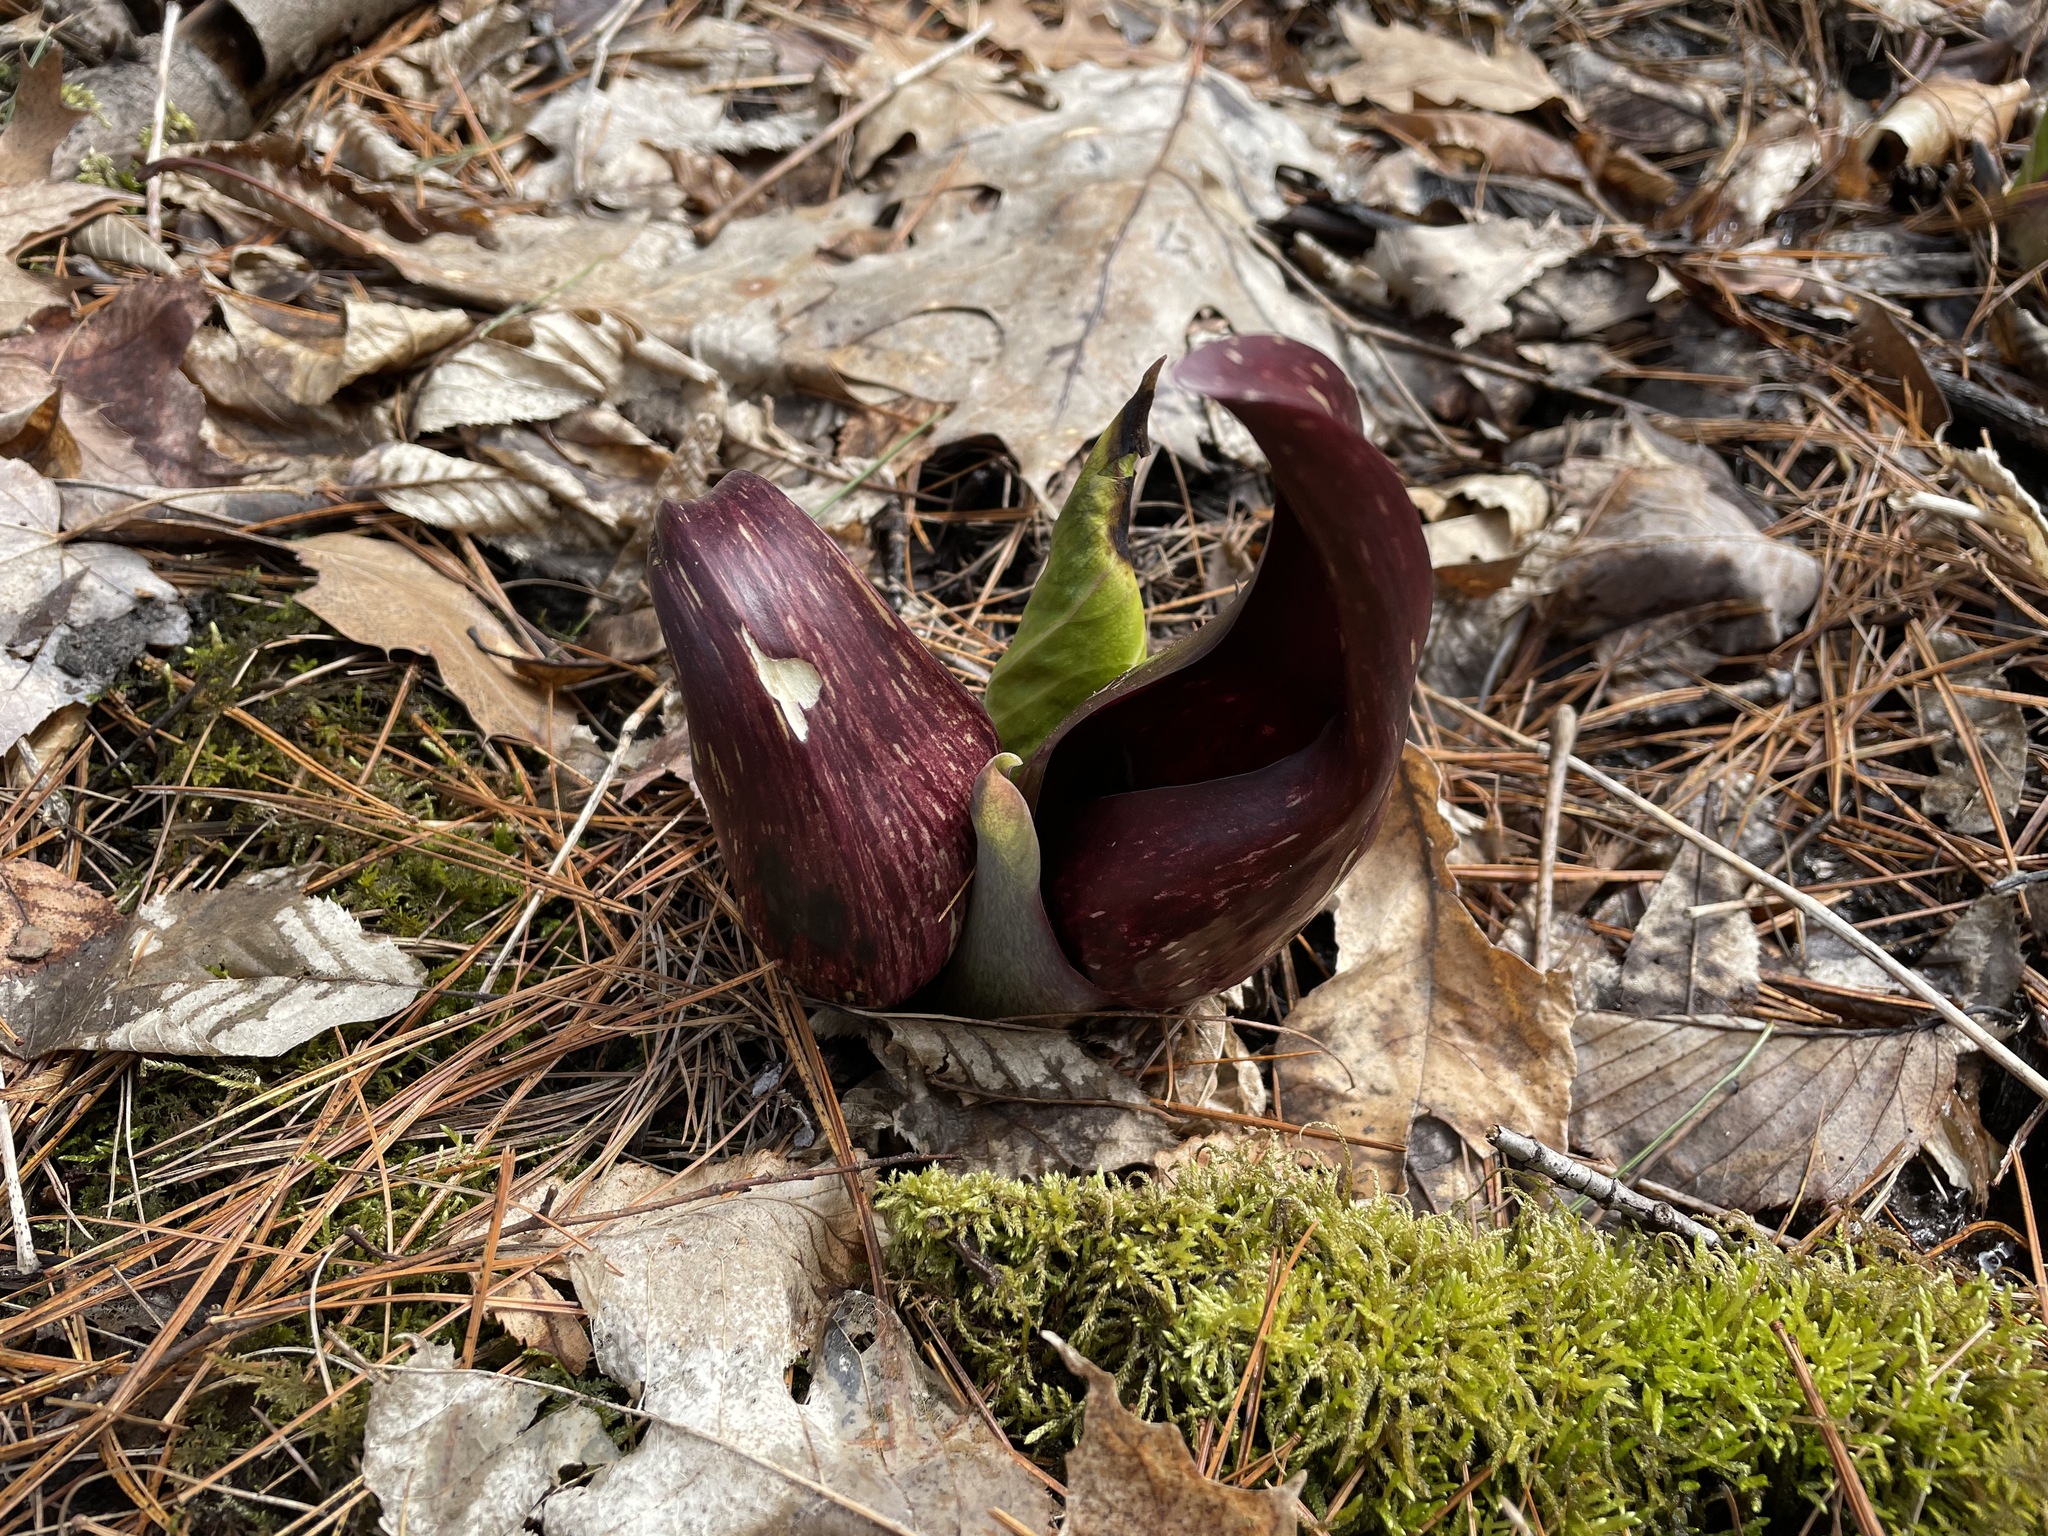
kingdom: Plantae
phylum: Tracheophyta
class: Liliopsida
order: Alismatales
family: Araceae
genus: Symplocarpus
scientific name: Symplocarpus foetidus
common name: Eastern skunk cabbage
